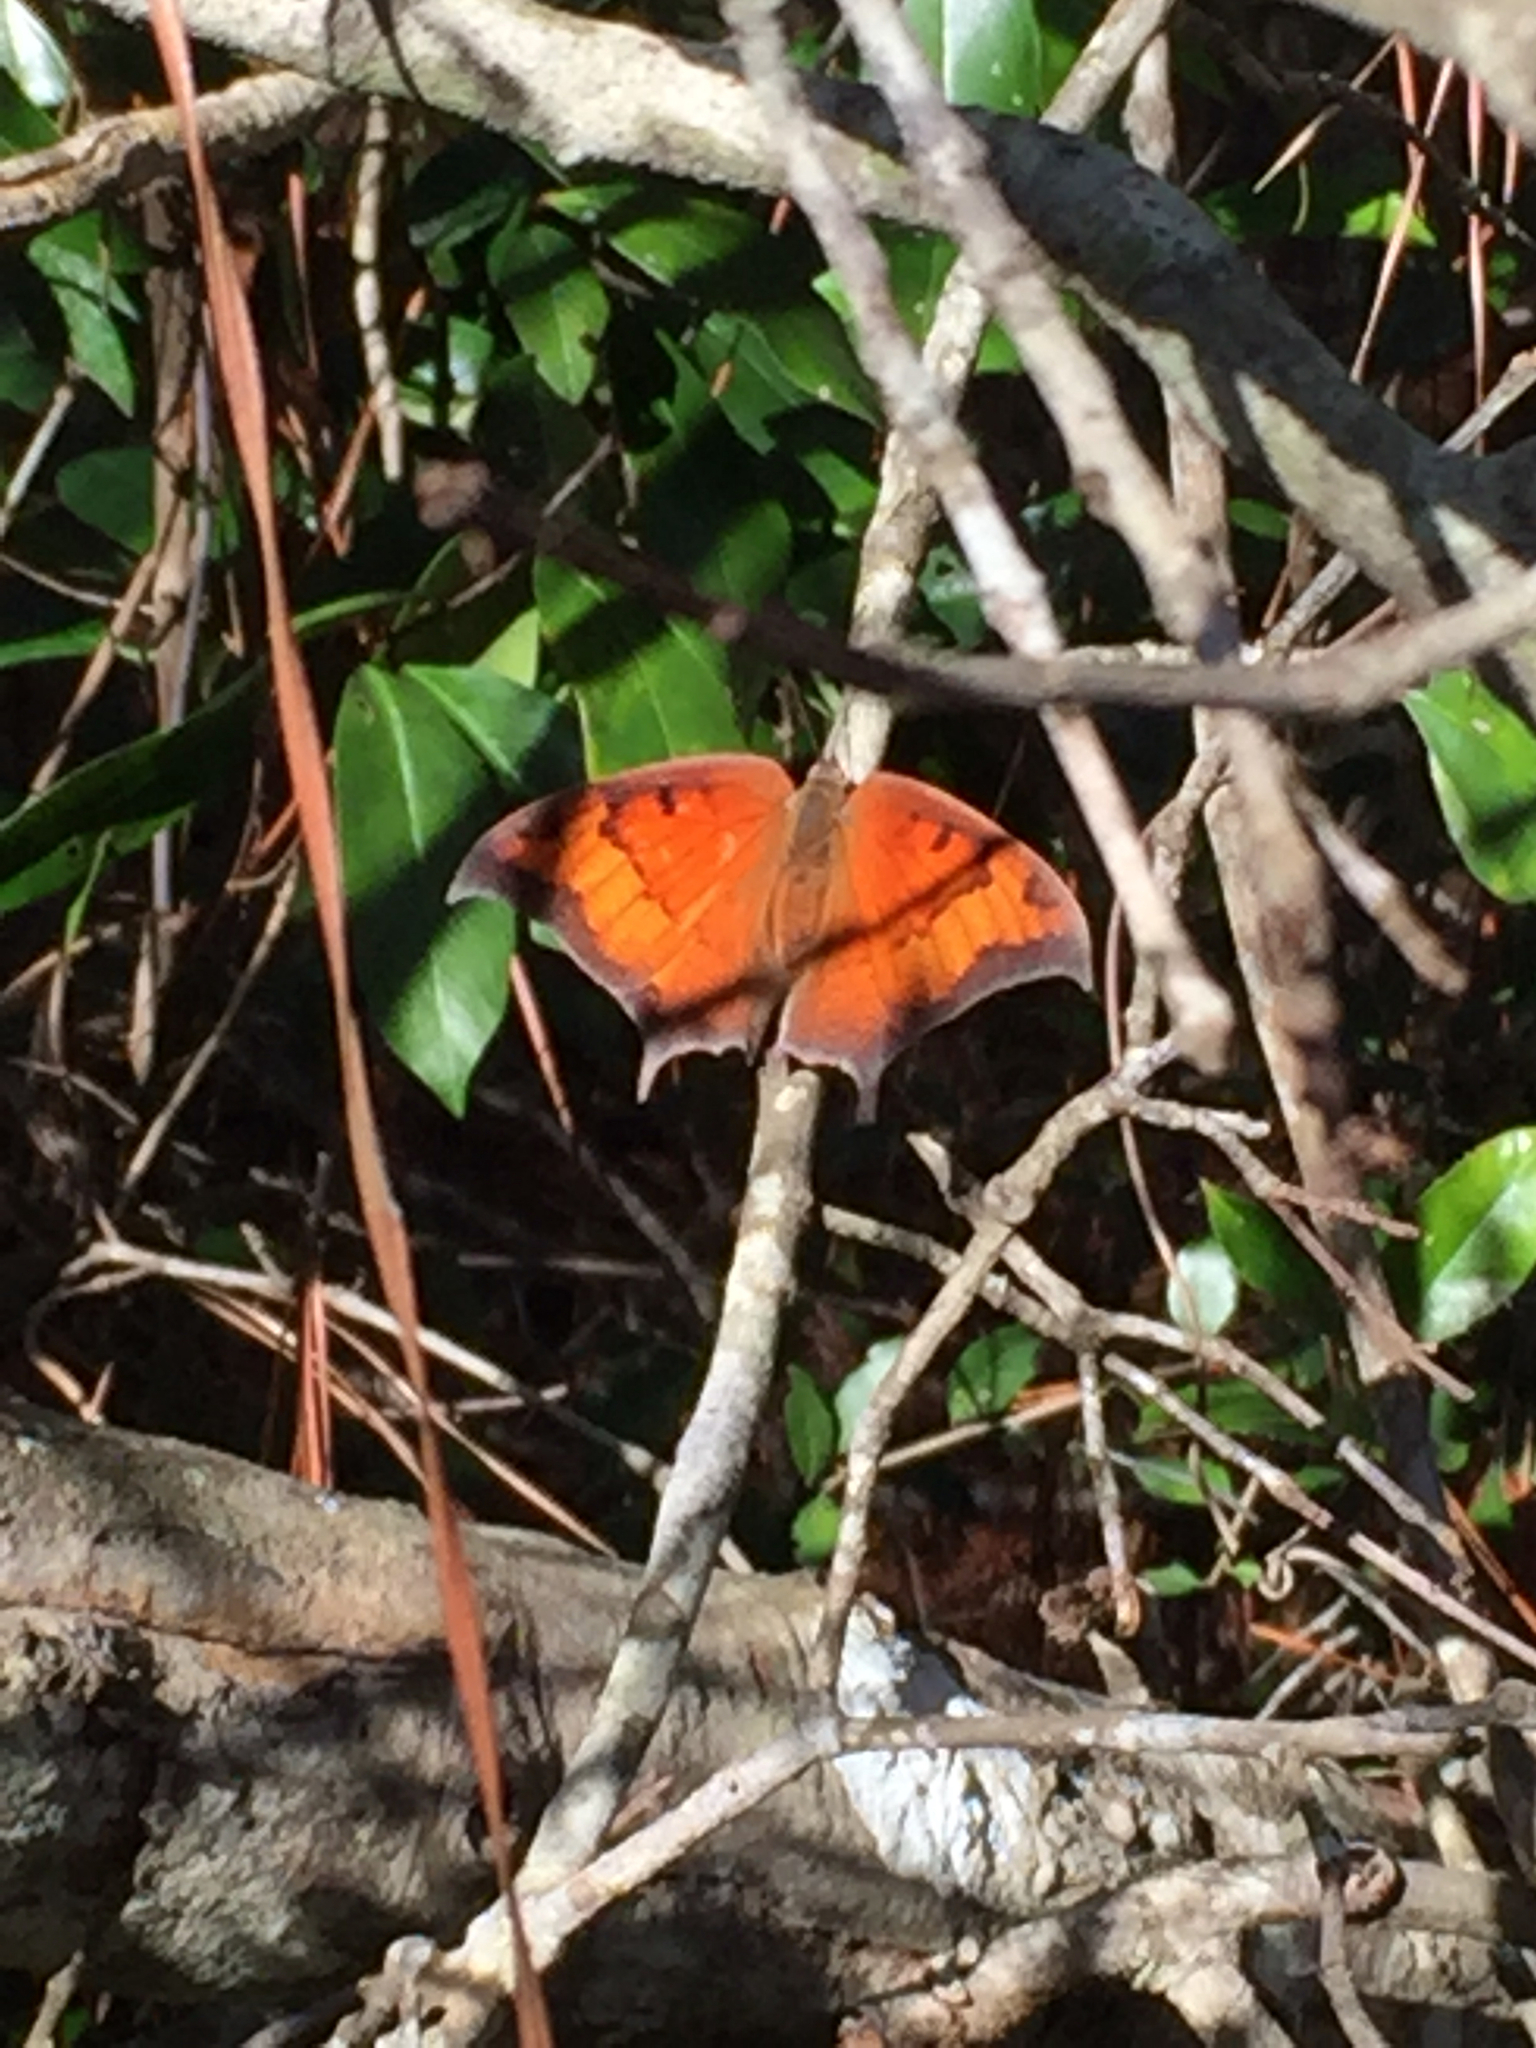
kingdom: Animalia
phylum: Arthropoda
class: Insecta
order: Lepidoptera
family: Nymphalidae
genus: Anaea
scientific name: Anaea andria
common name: Goatweed leafwing
